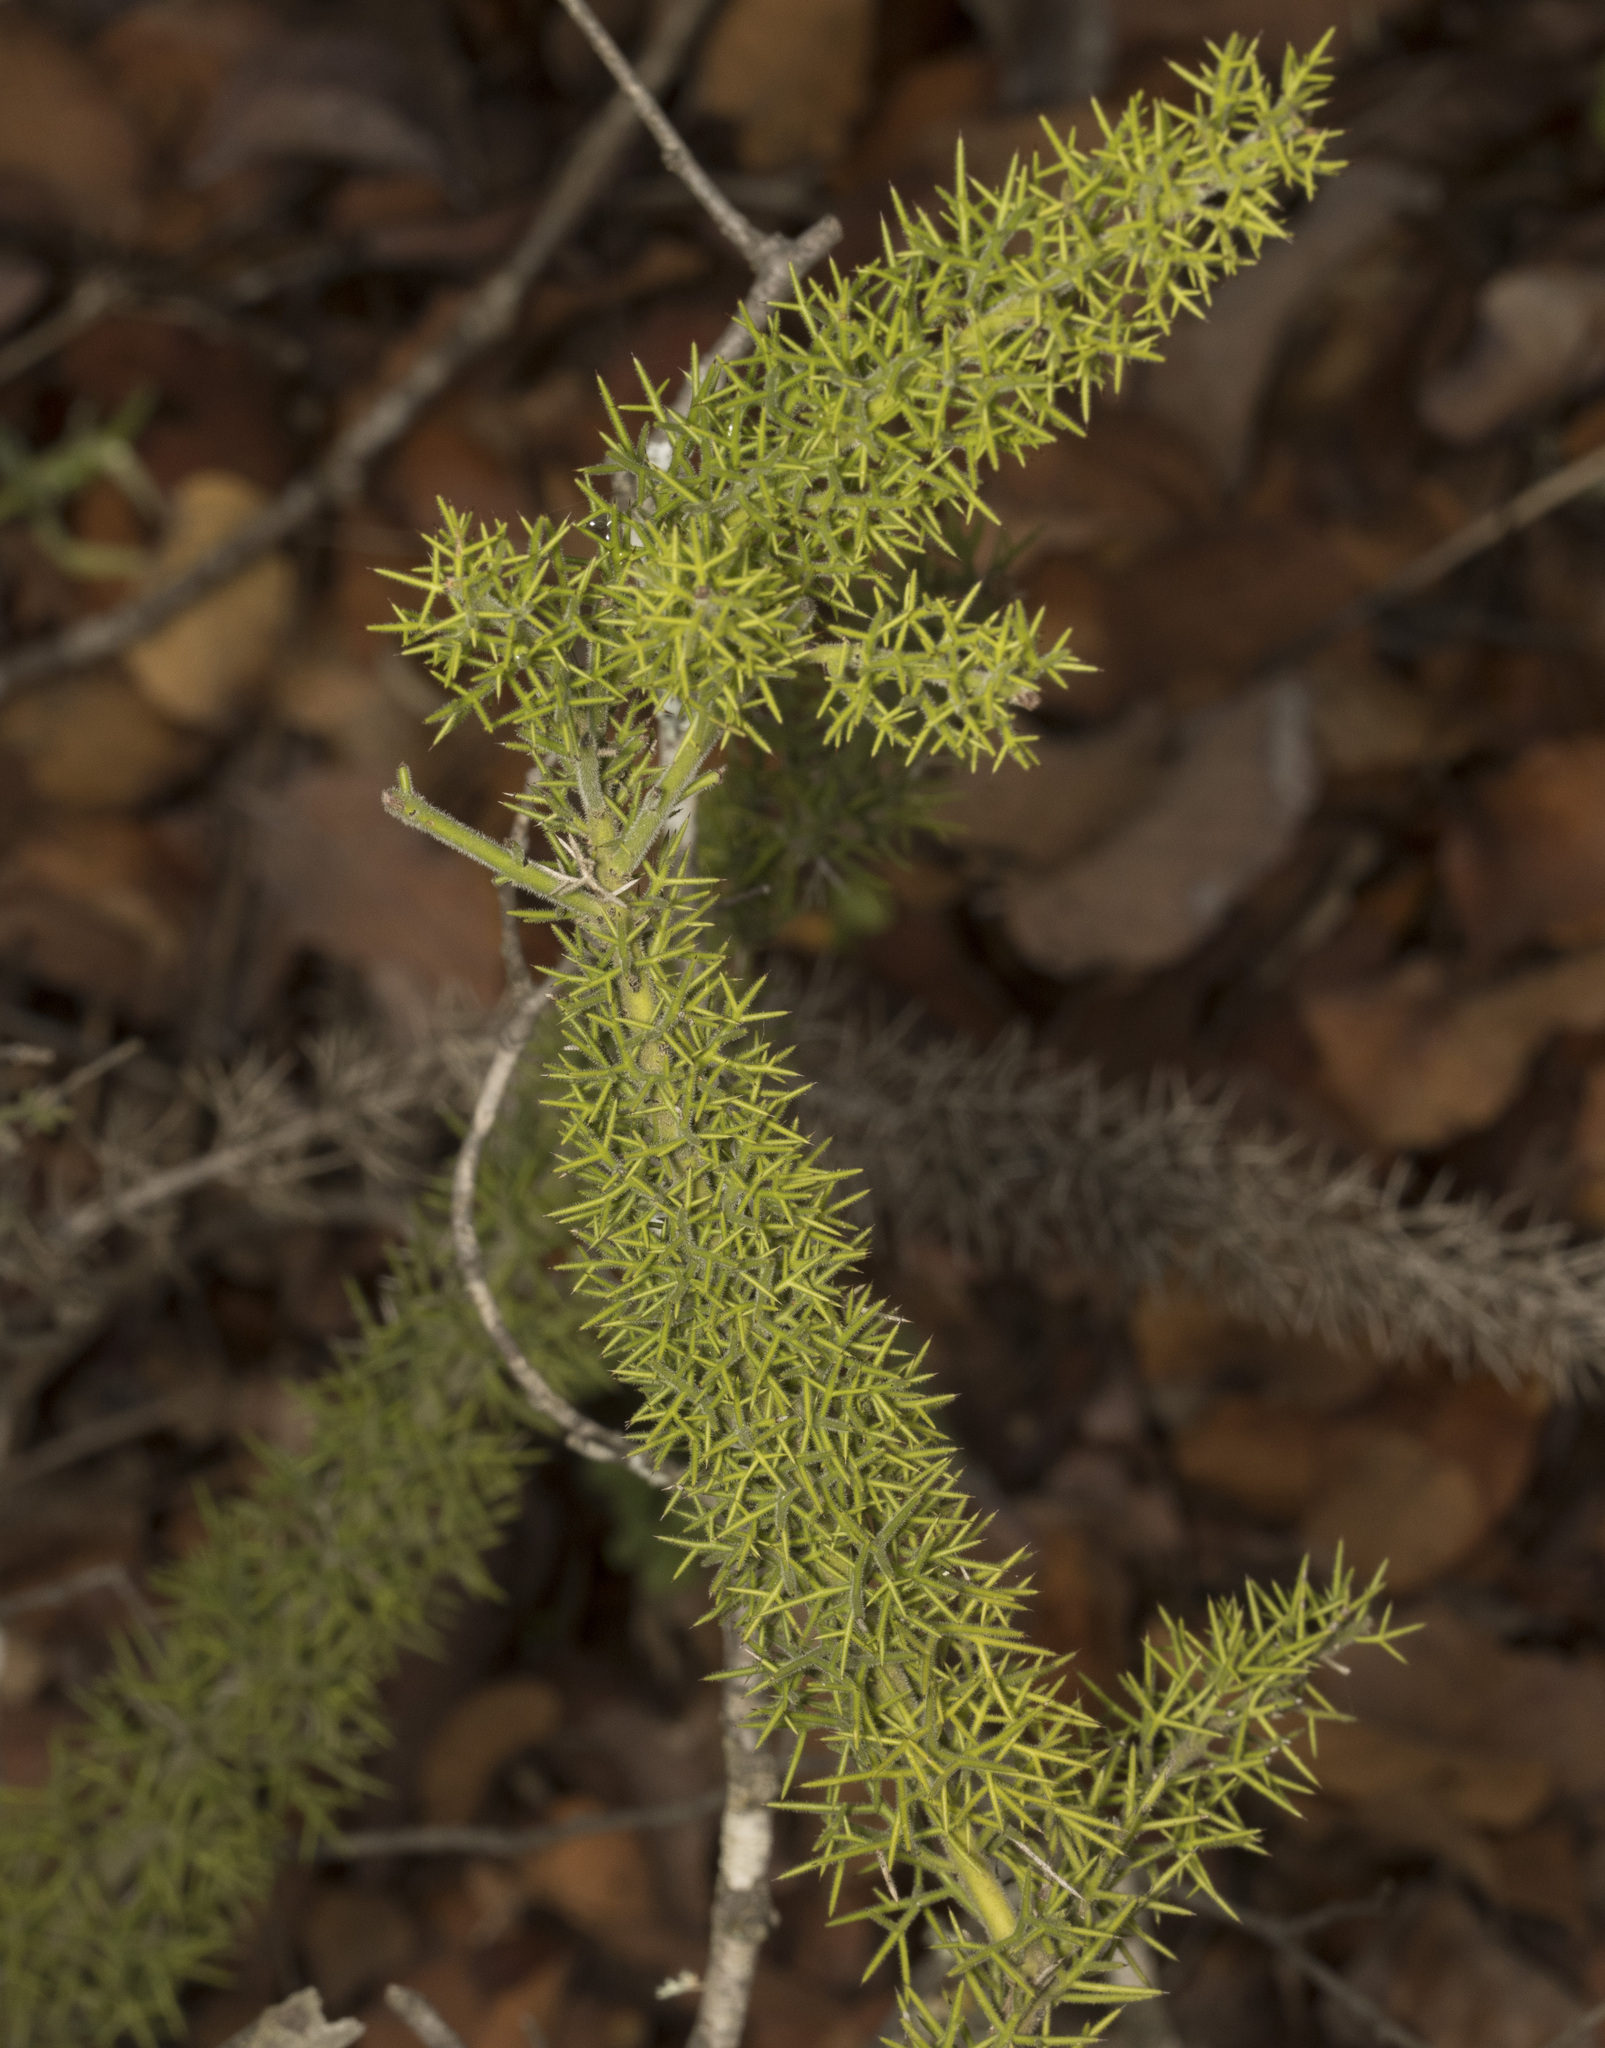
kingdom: Plantae
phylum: Tracheophyta
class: Magnoliopsida
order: Rosales
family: Rhamnaceae
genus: Colletia
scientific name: Colletia ulicina
